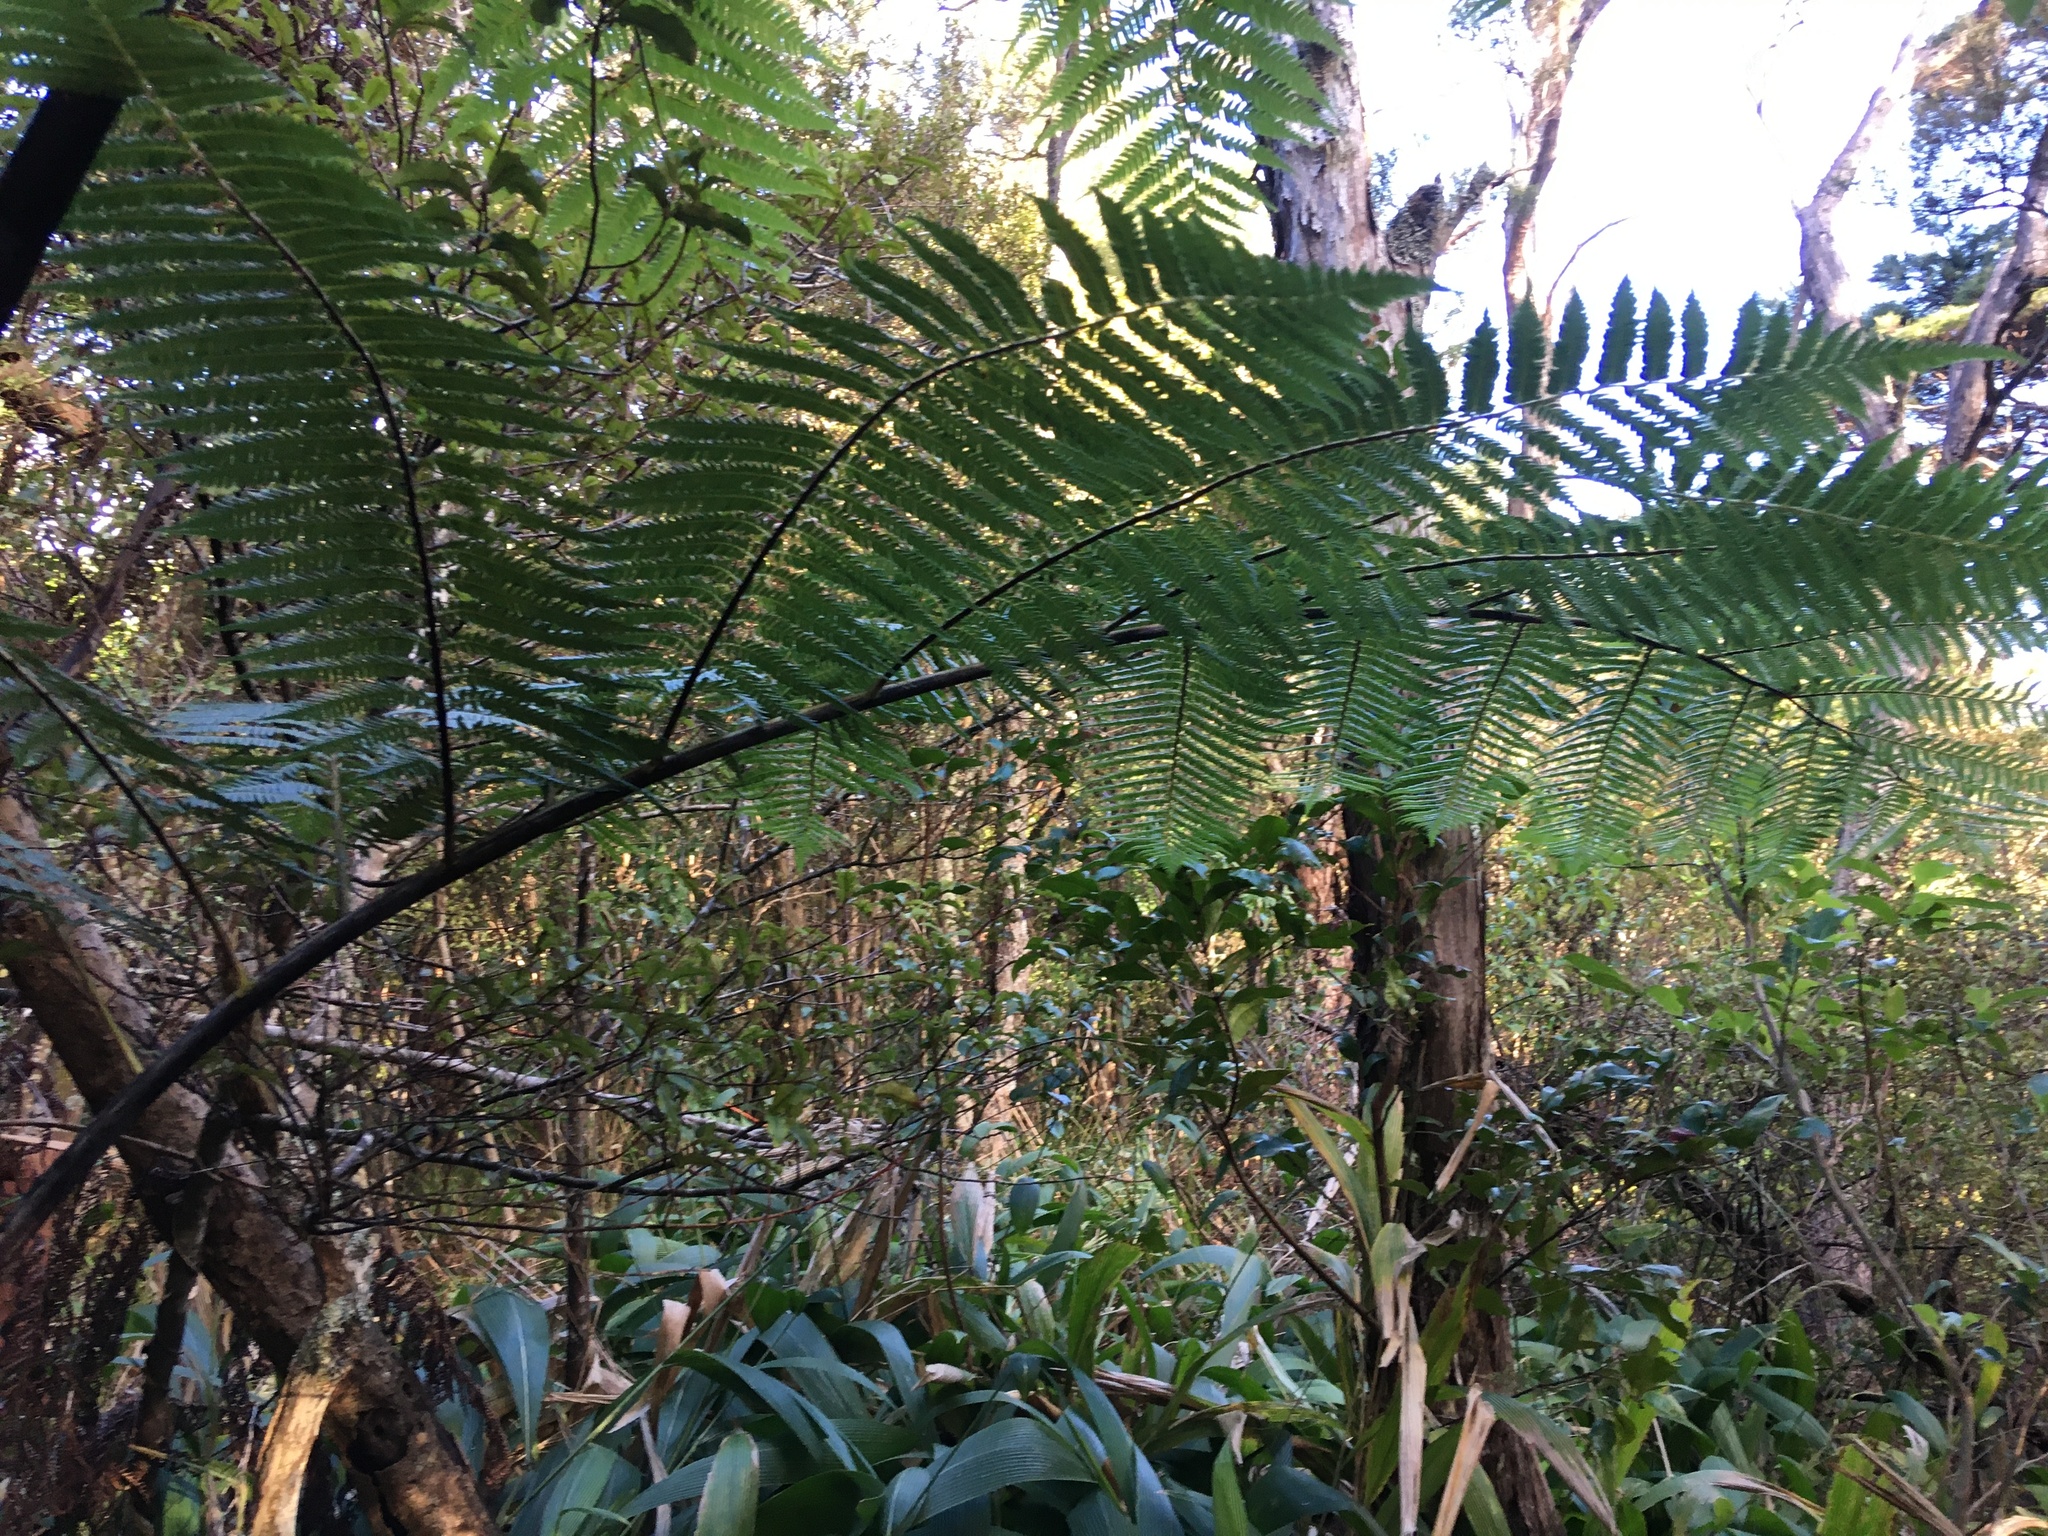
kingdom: Plantae
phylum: Tracheophyta
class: Polypodiopsida
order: Cyatheales
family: Cyatheaceae
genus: Sphaeropteris
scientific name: Sphaeropteris medullaris
